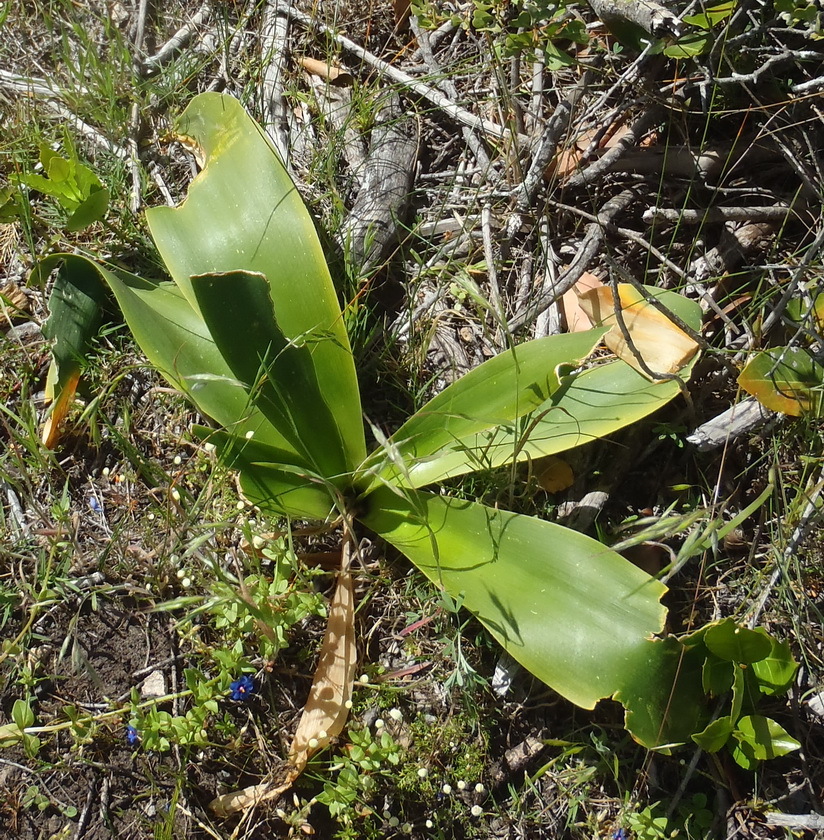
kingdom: Plantae
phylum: Tracheophyta
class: Liliopsida
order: Asparagales
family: Asparagaceae
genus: Drimia
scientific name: Drimia capensis
